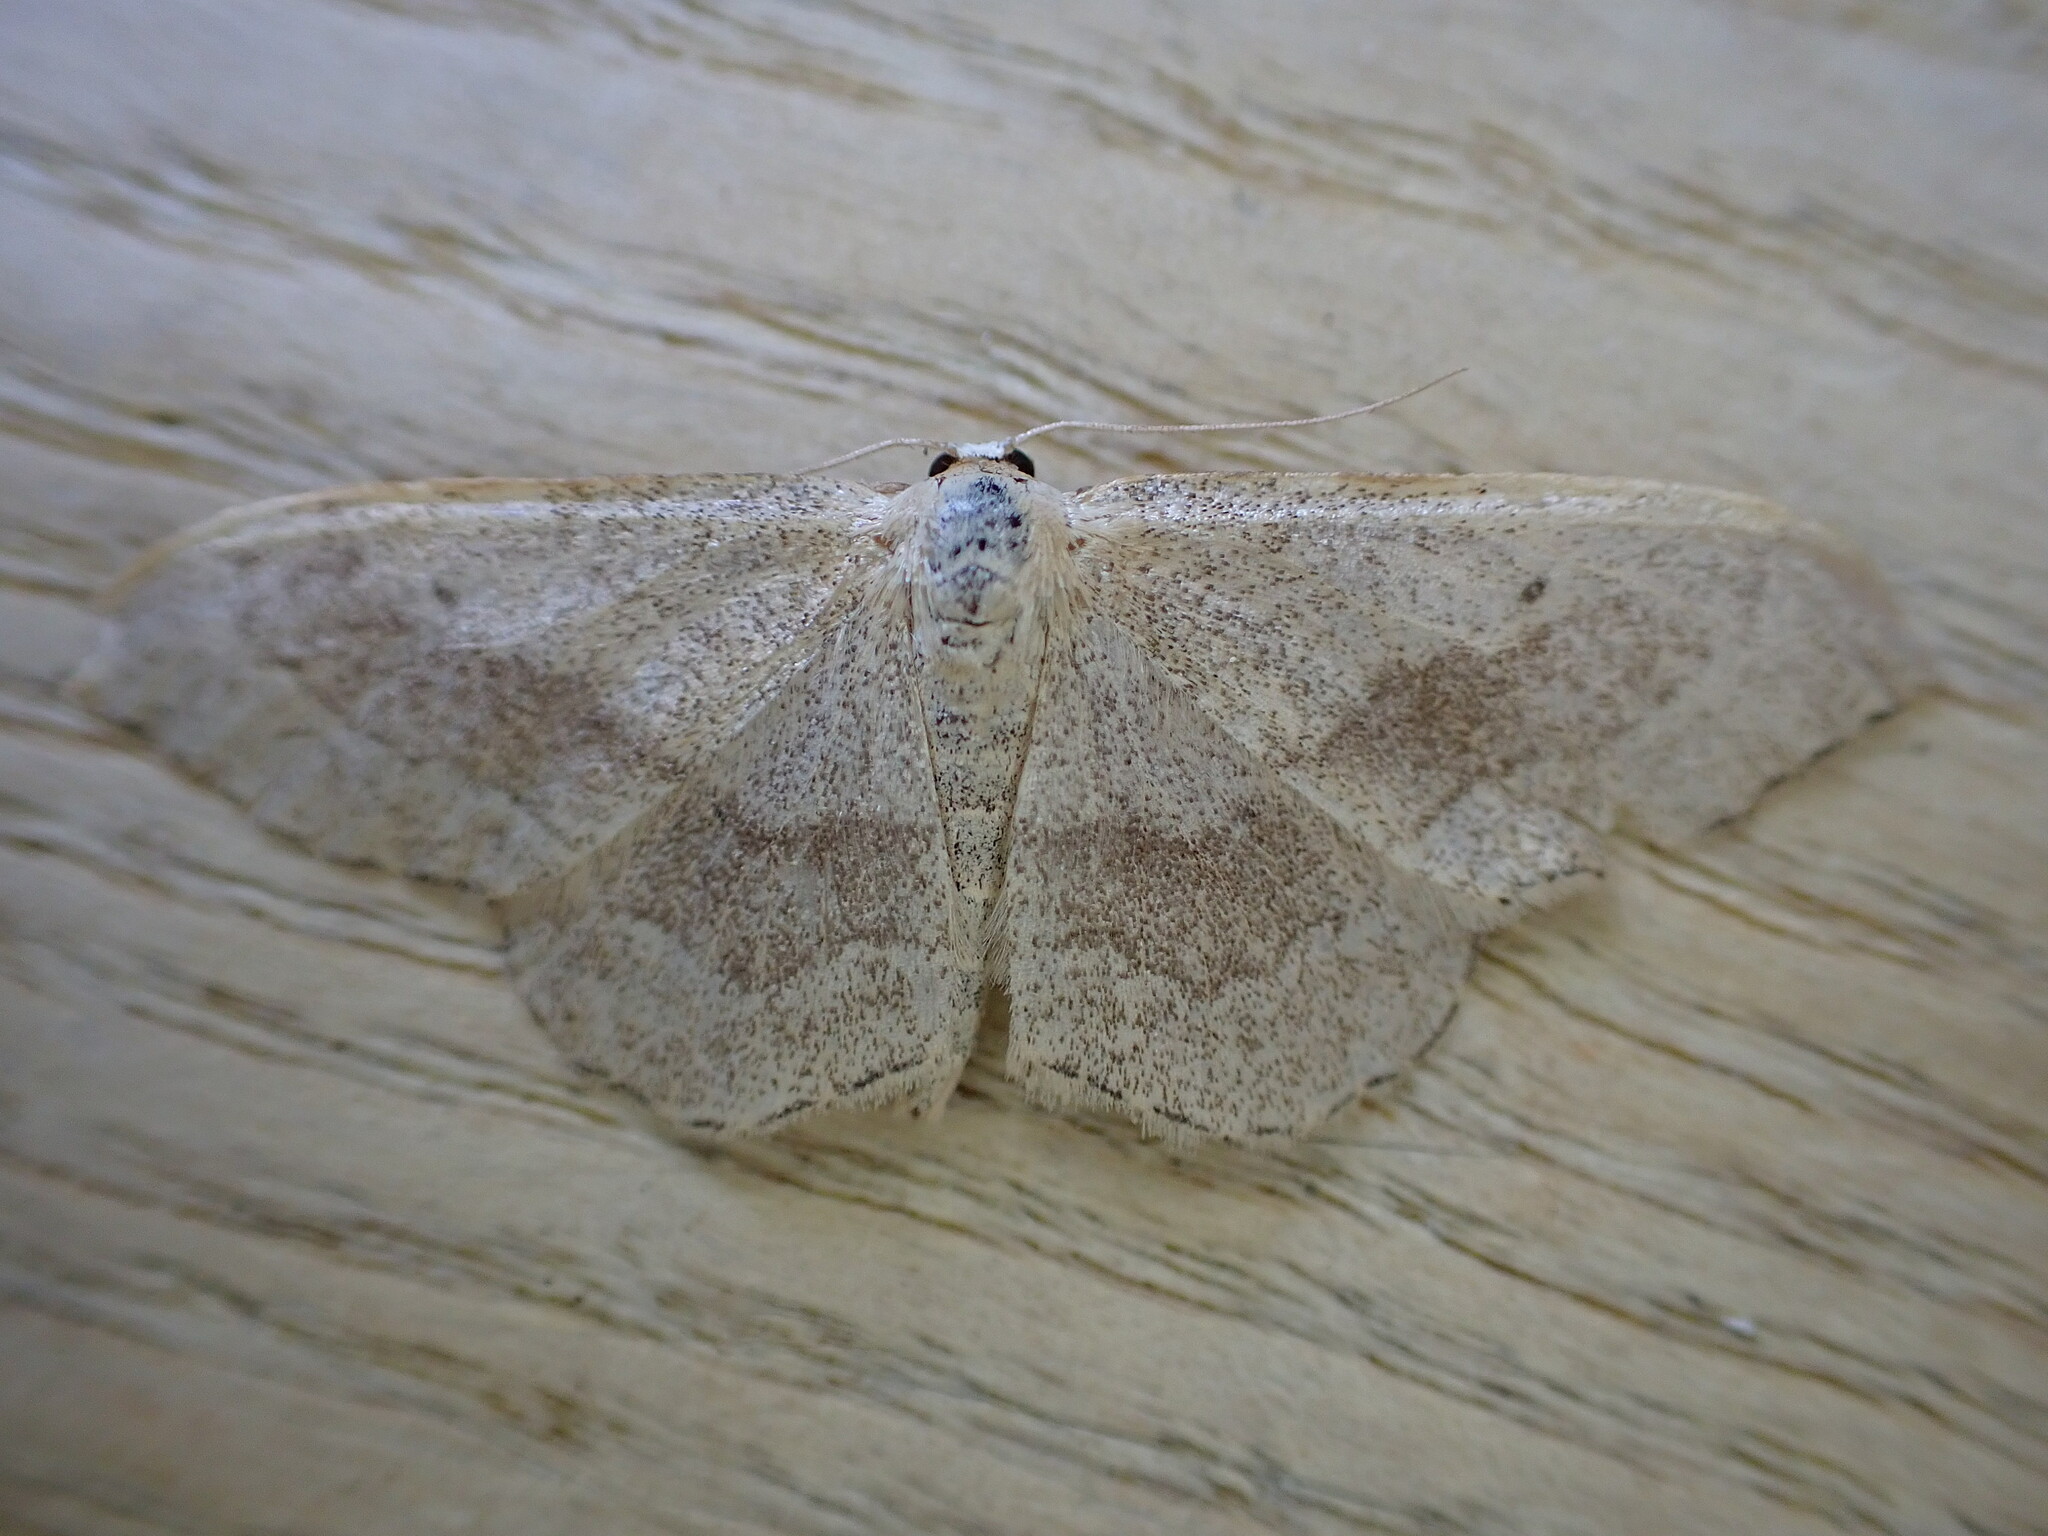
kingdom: Animalia
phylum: Arthropoda
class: Insecta
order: Lepidoptera
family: Geometridae
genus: Idaea
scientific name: Idaea aversata
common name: Riband wave
